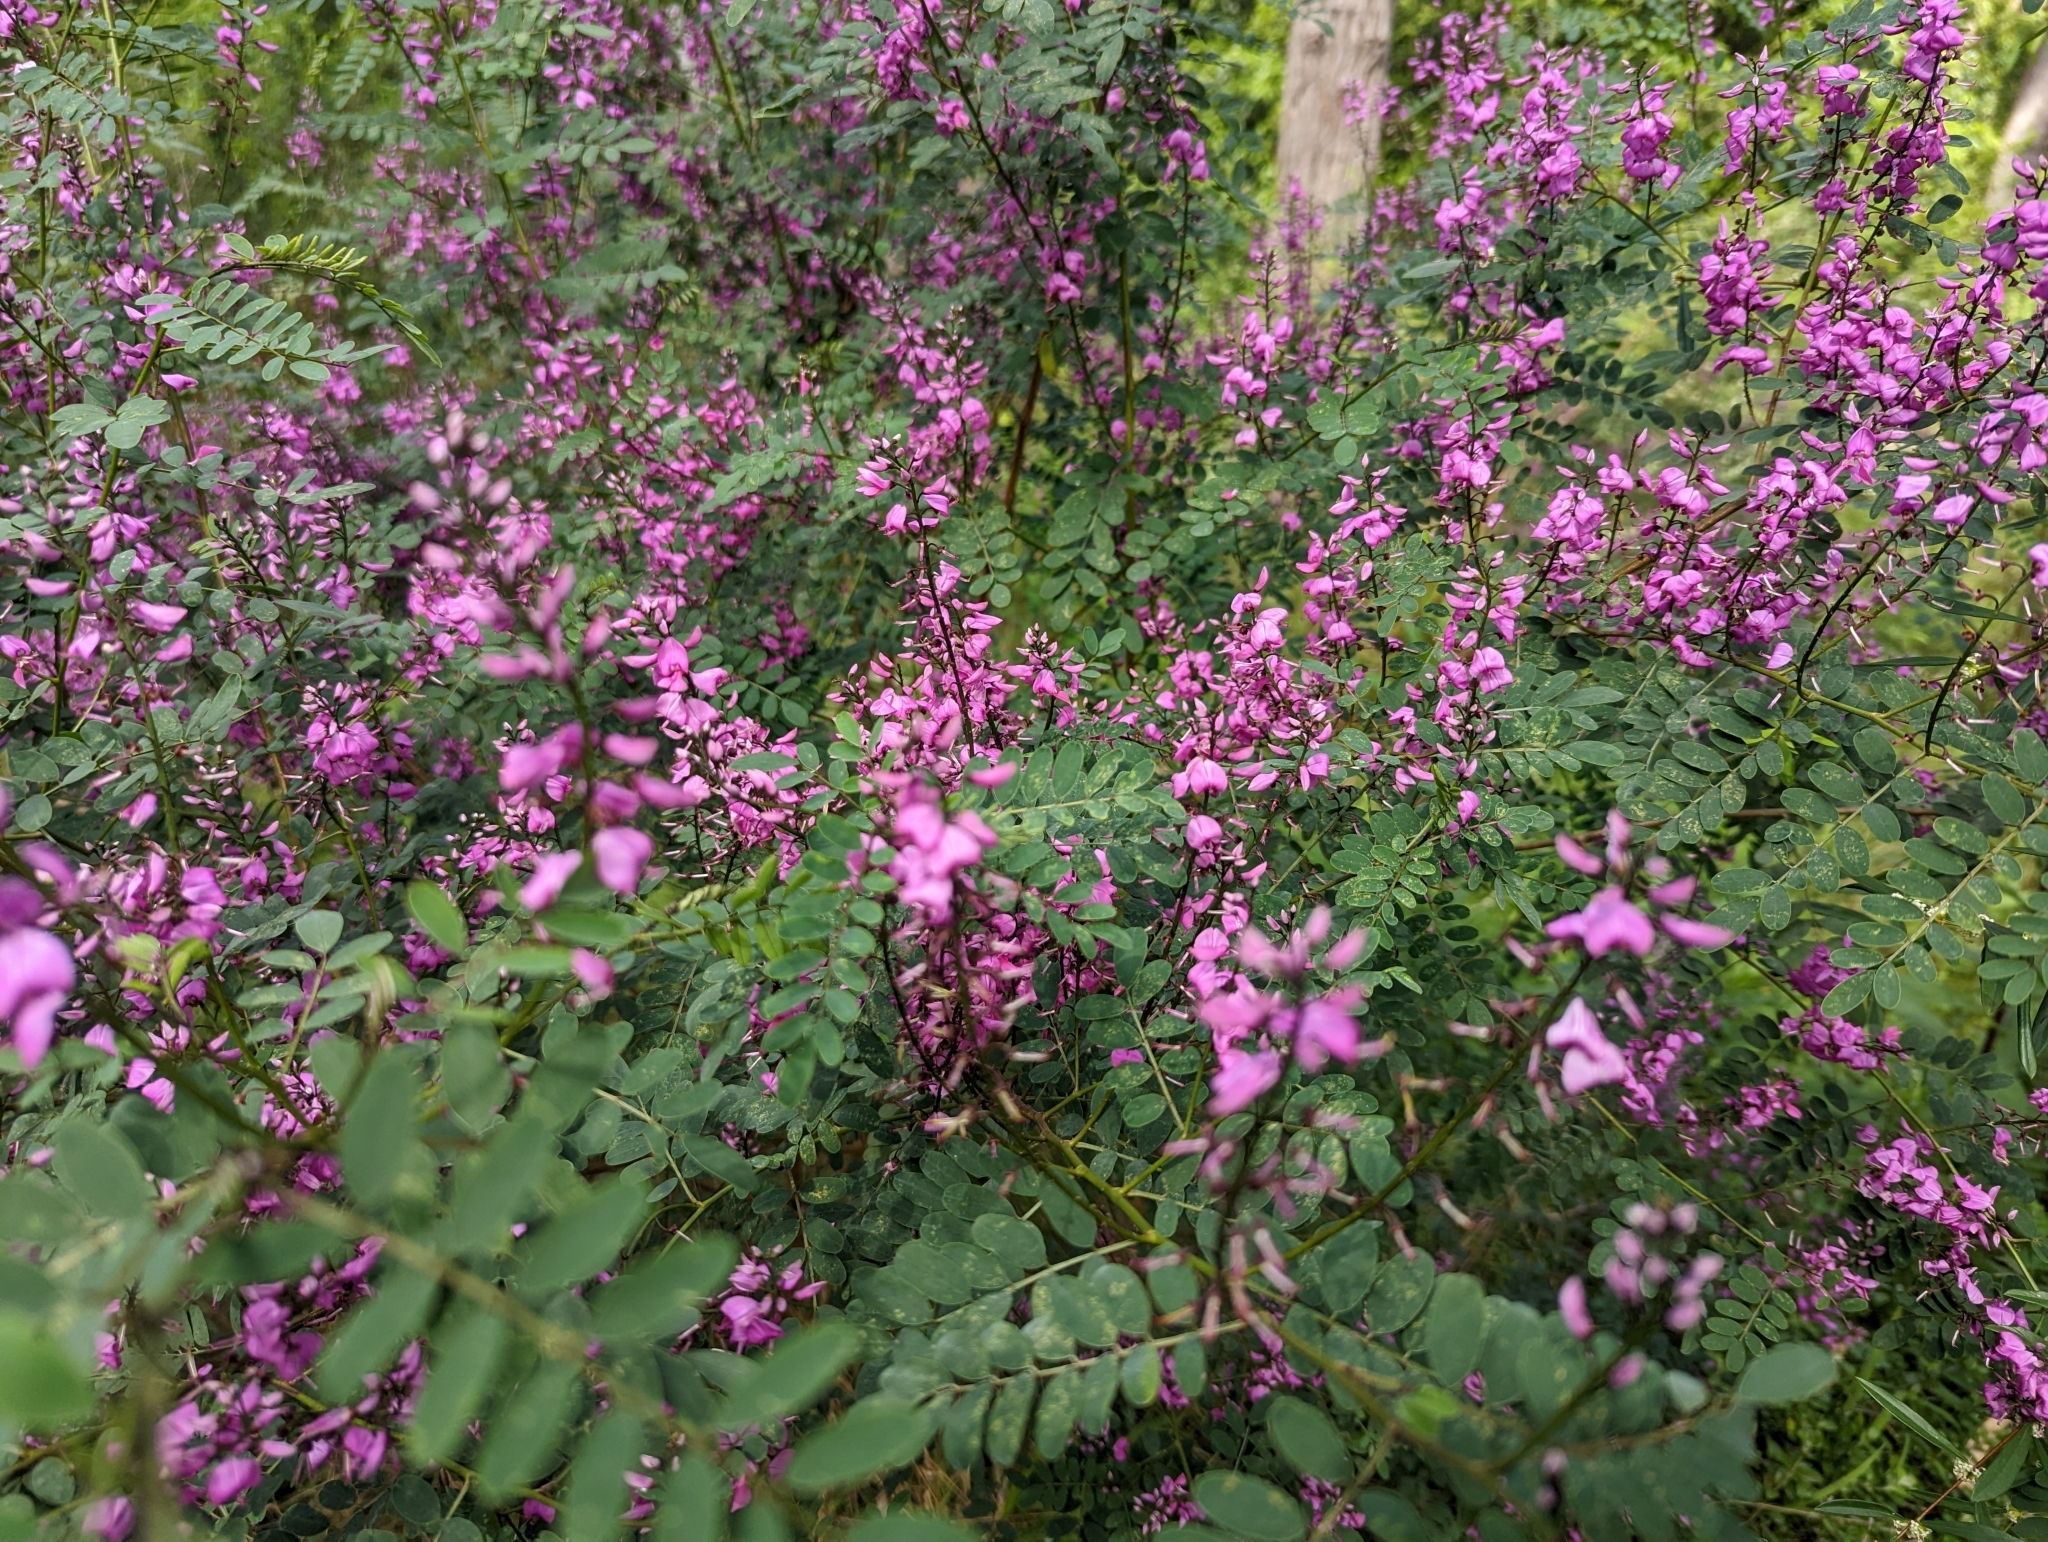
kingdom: Plantae
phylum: Tracheophyta
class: Magnoliopsida
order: Fabales
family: Fabaceae
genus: Indigofera
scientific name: Indigofera australis
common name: Australian indigo
